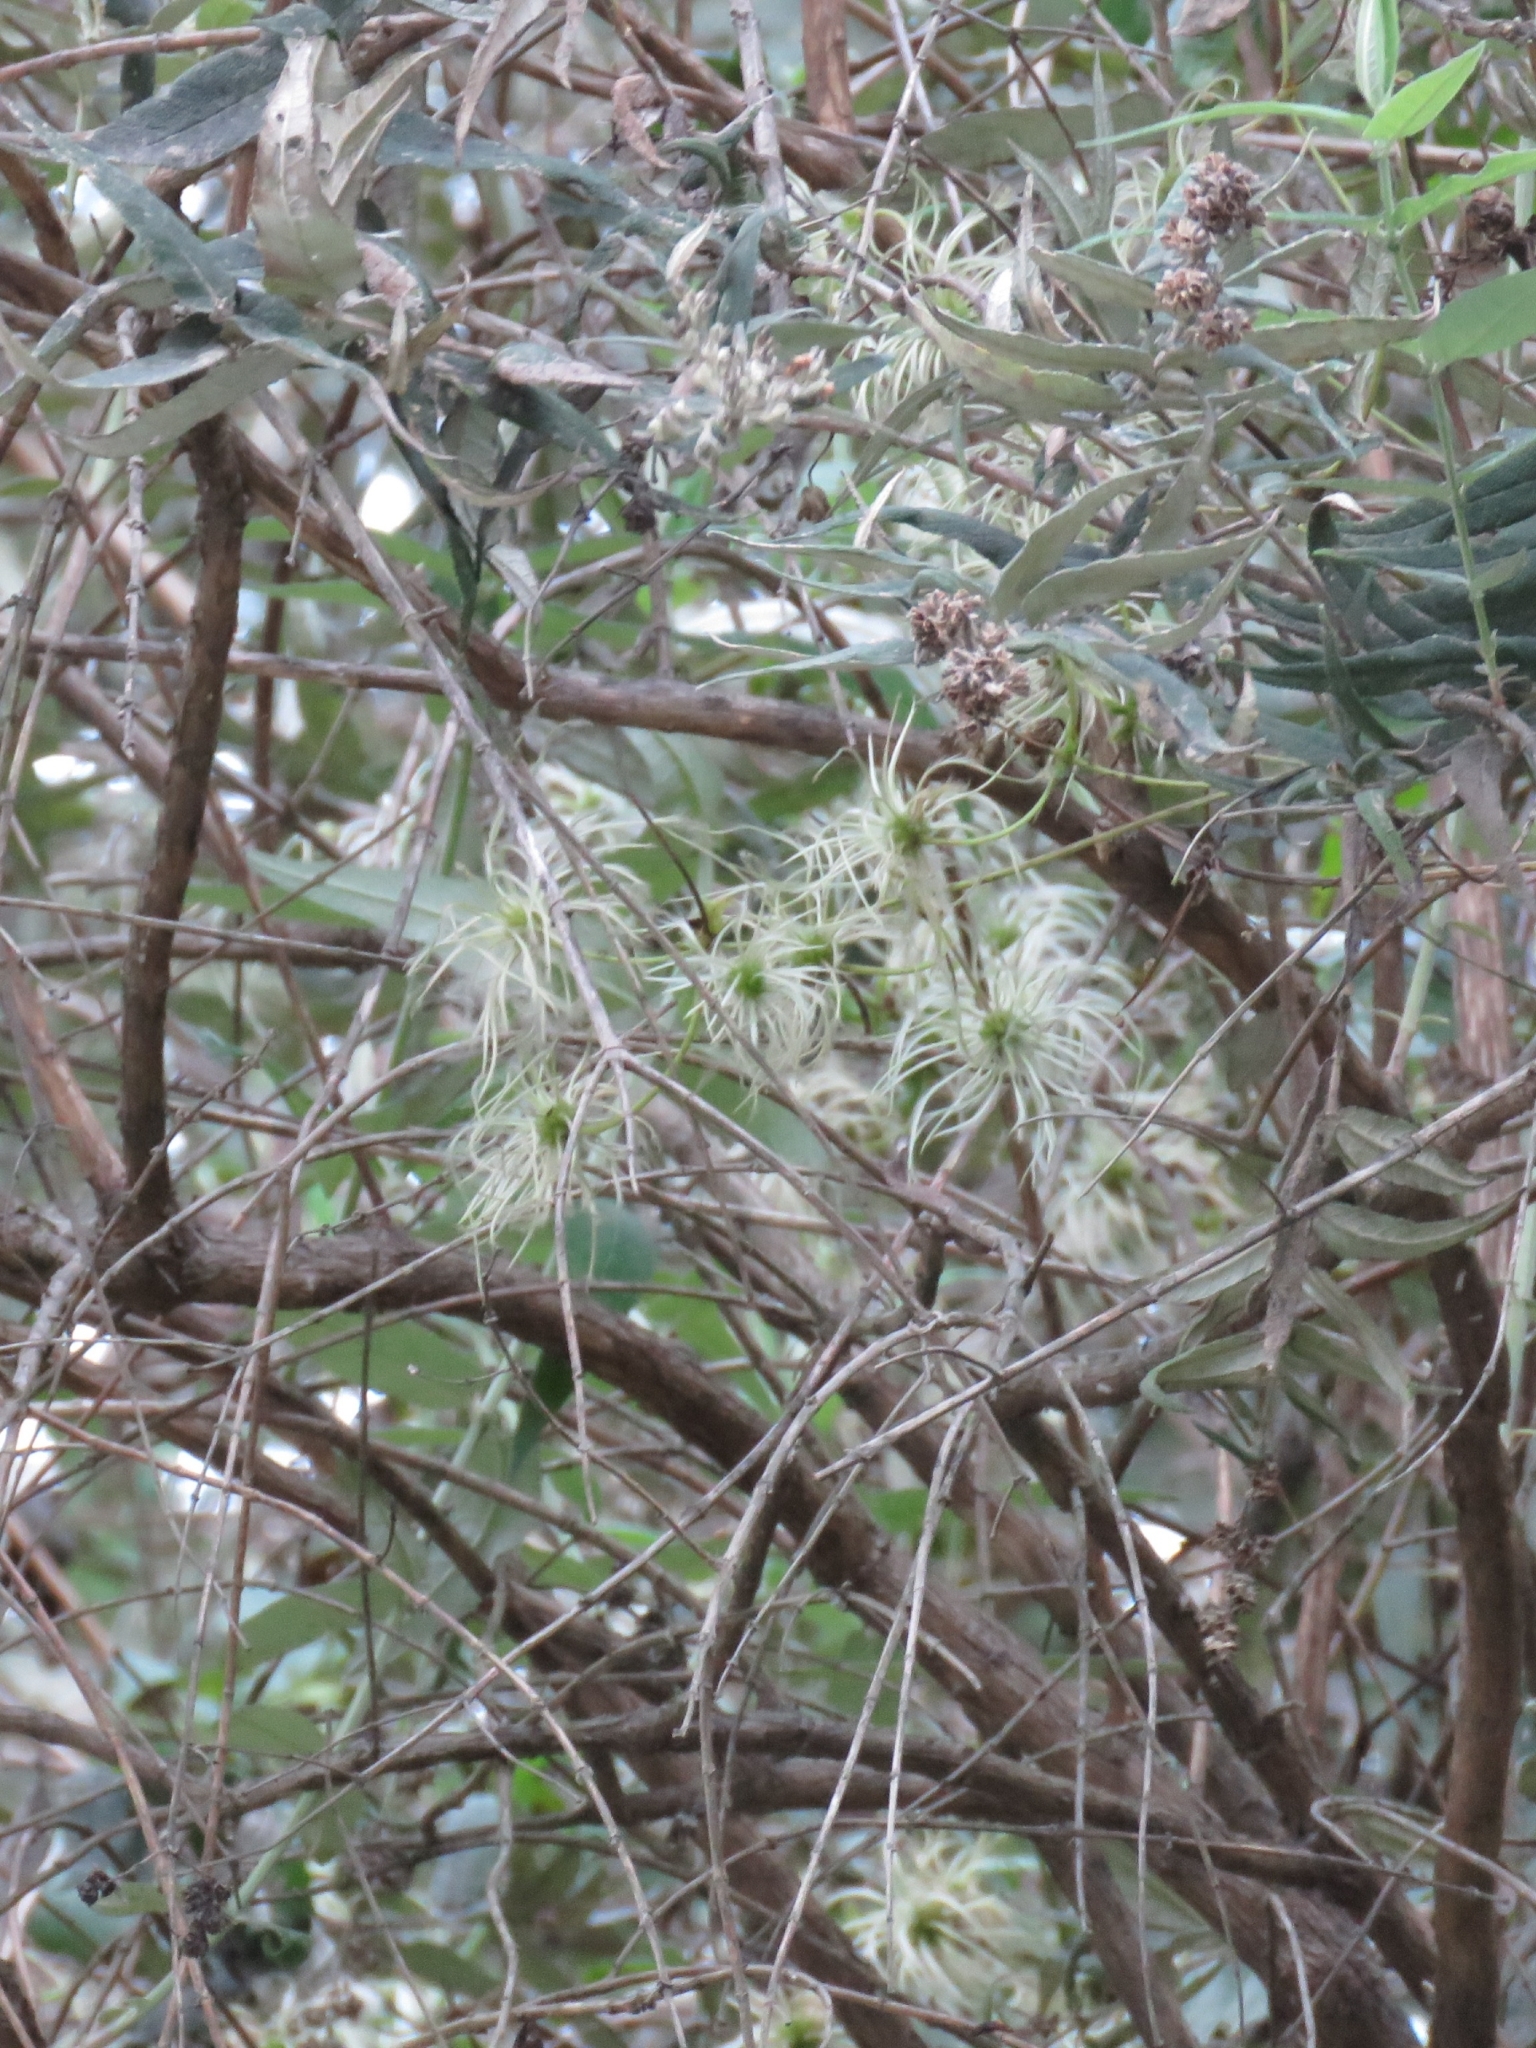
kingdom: Plantae
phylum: Tracheophyta
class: Magnoliopsida
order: Ranunculales
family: Ranunculaceae
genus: Clematis
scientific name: Clematis brachiata
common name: Traveler's-joy
